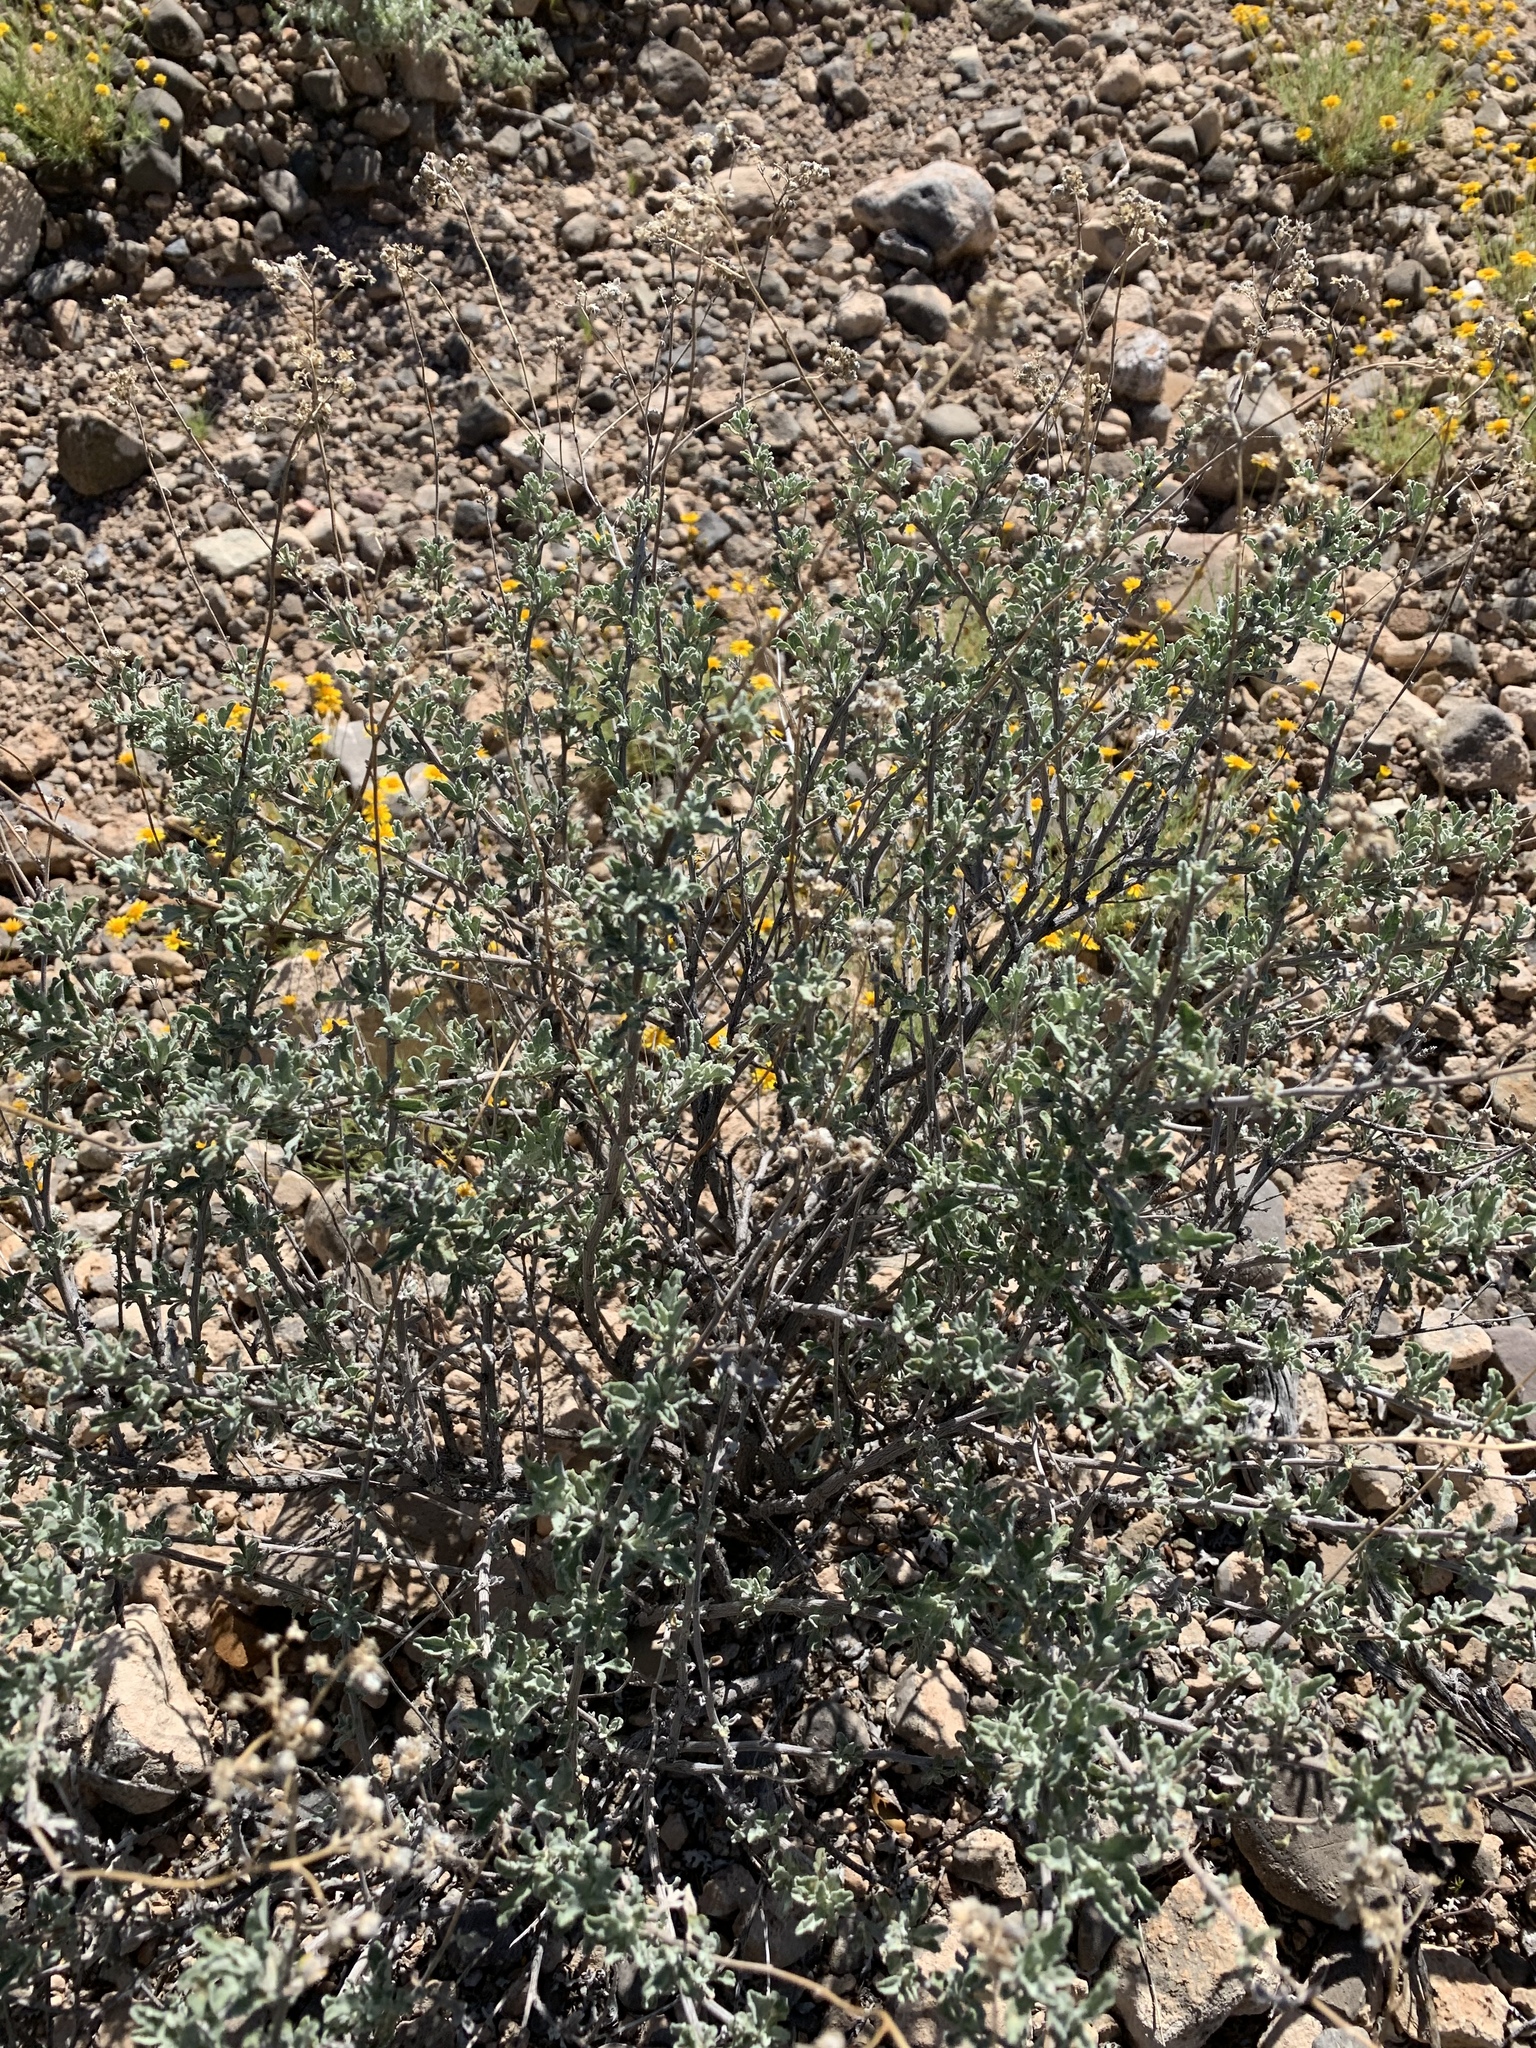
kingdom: Plantae
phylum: Tracheophyta
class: Magnoliopsida
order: Asterales
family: Asteraceae
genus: Parthenium
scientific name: Parthenium incanum
